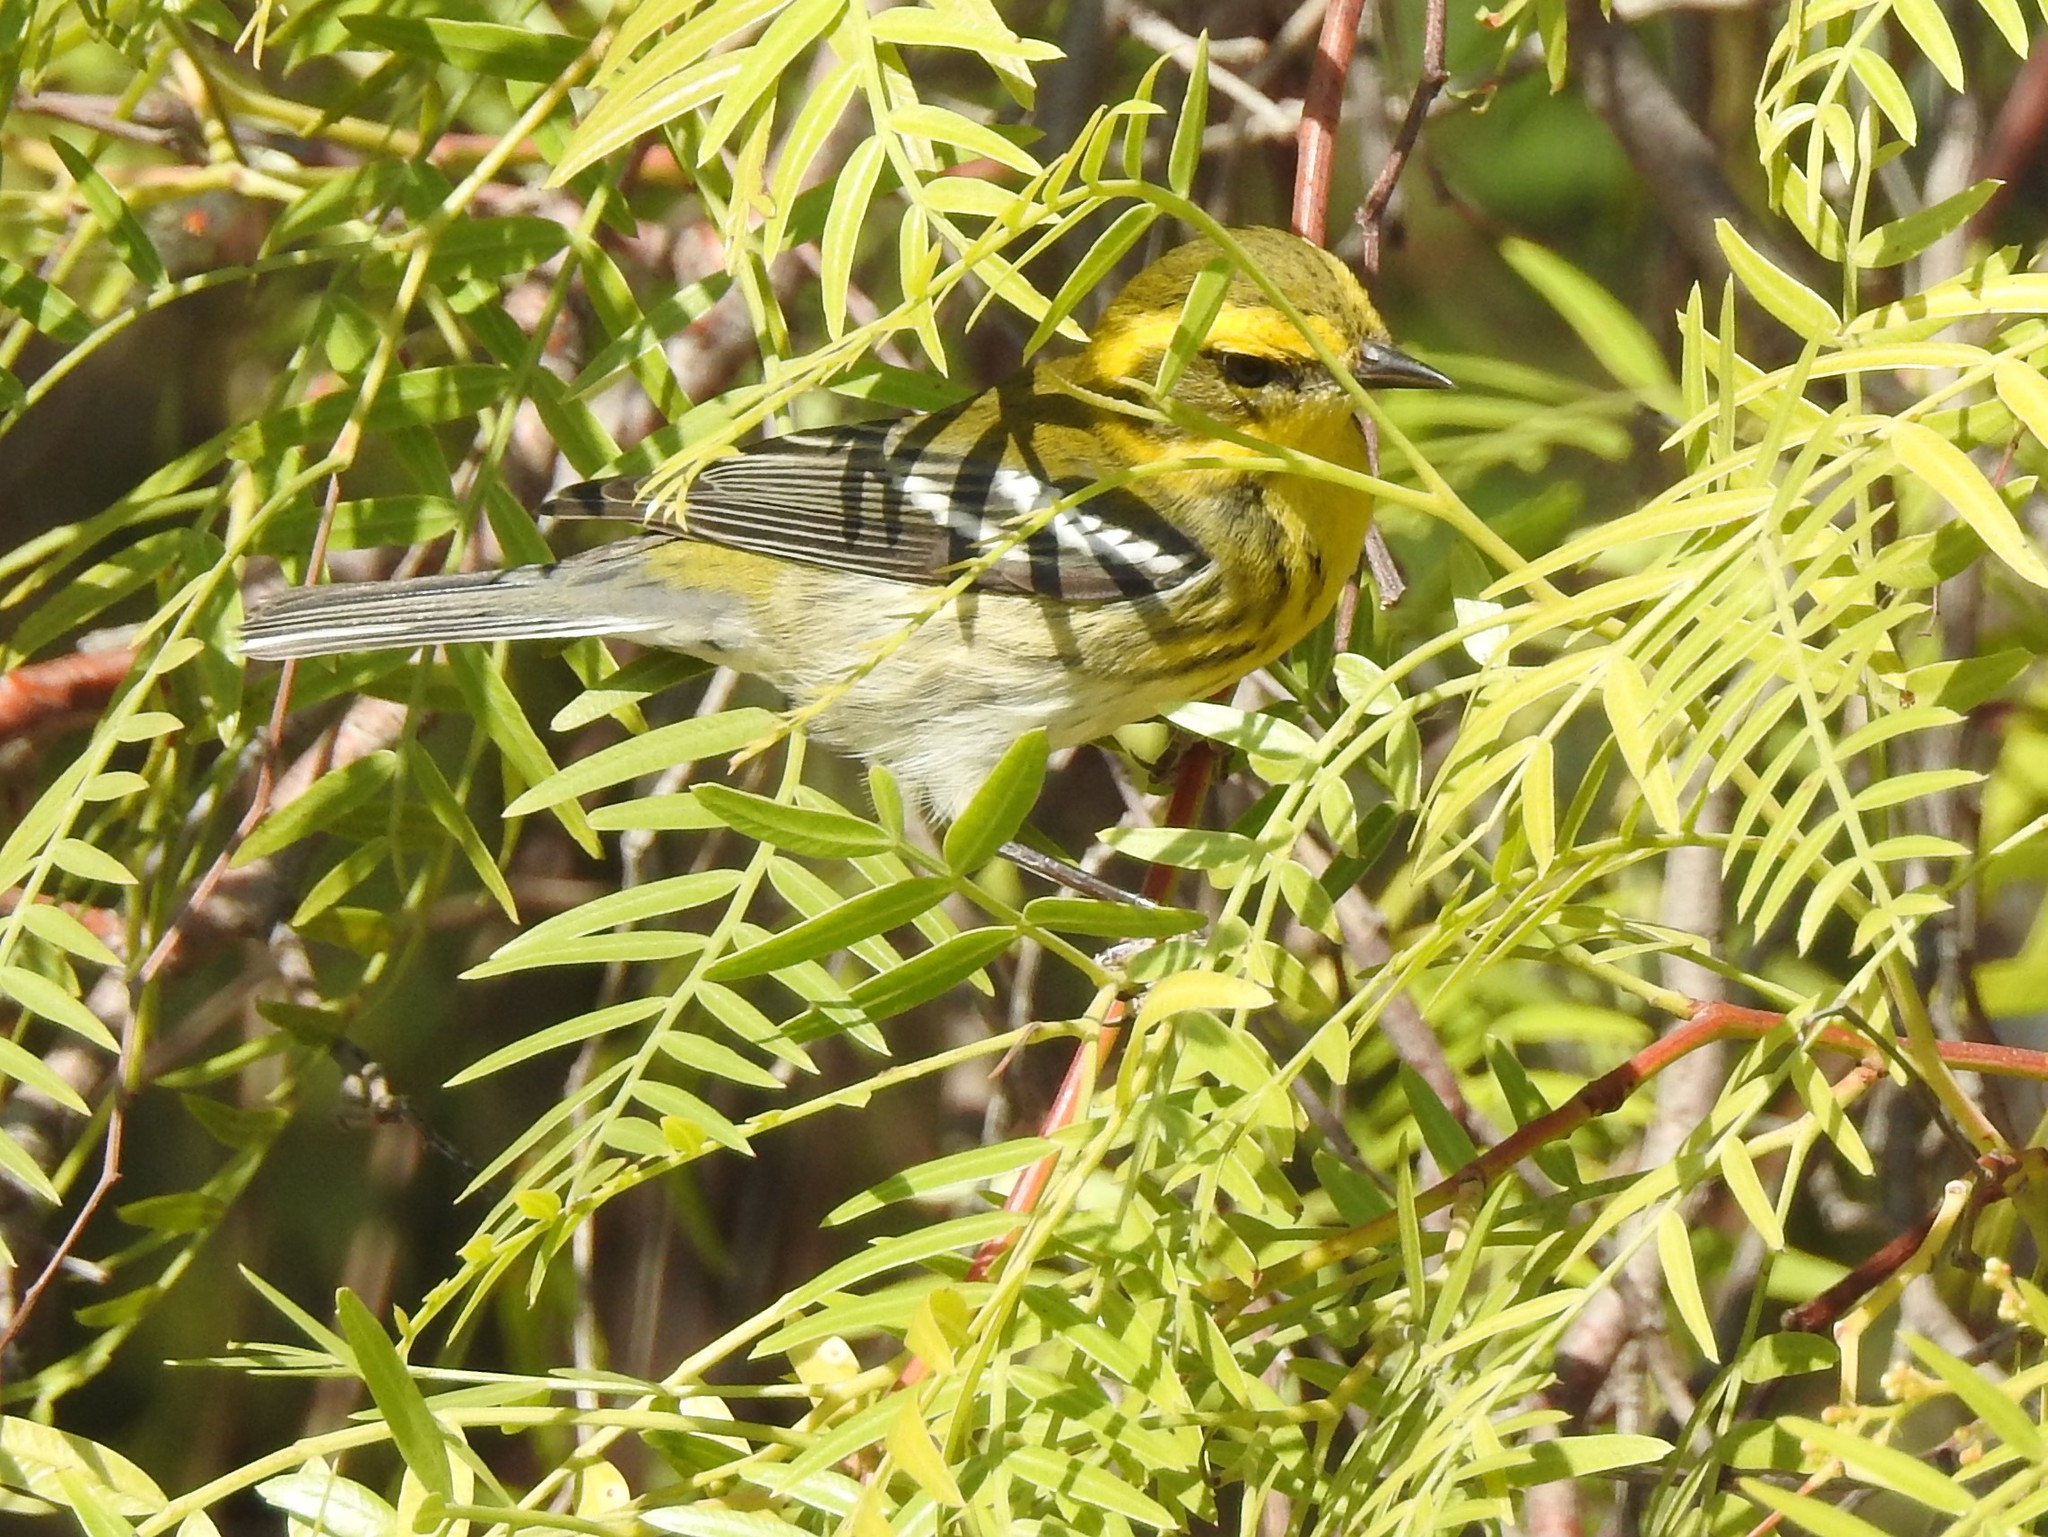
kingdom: Animalia
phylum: Chordata
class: Aves
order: Passeriformes
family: Parulidae
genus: Setophaga
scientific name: Setophaga townsendi
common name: Townsend's warbler
